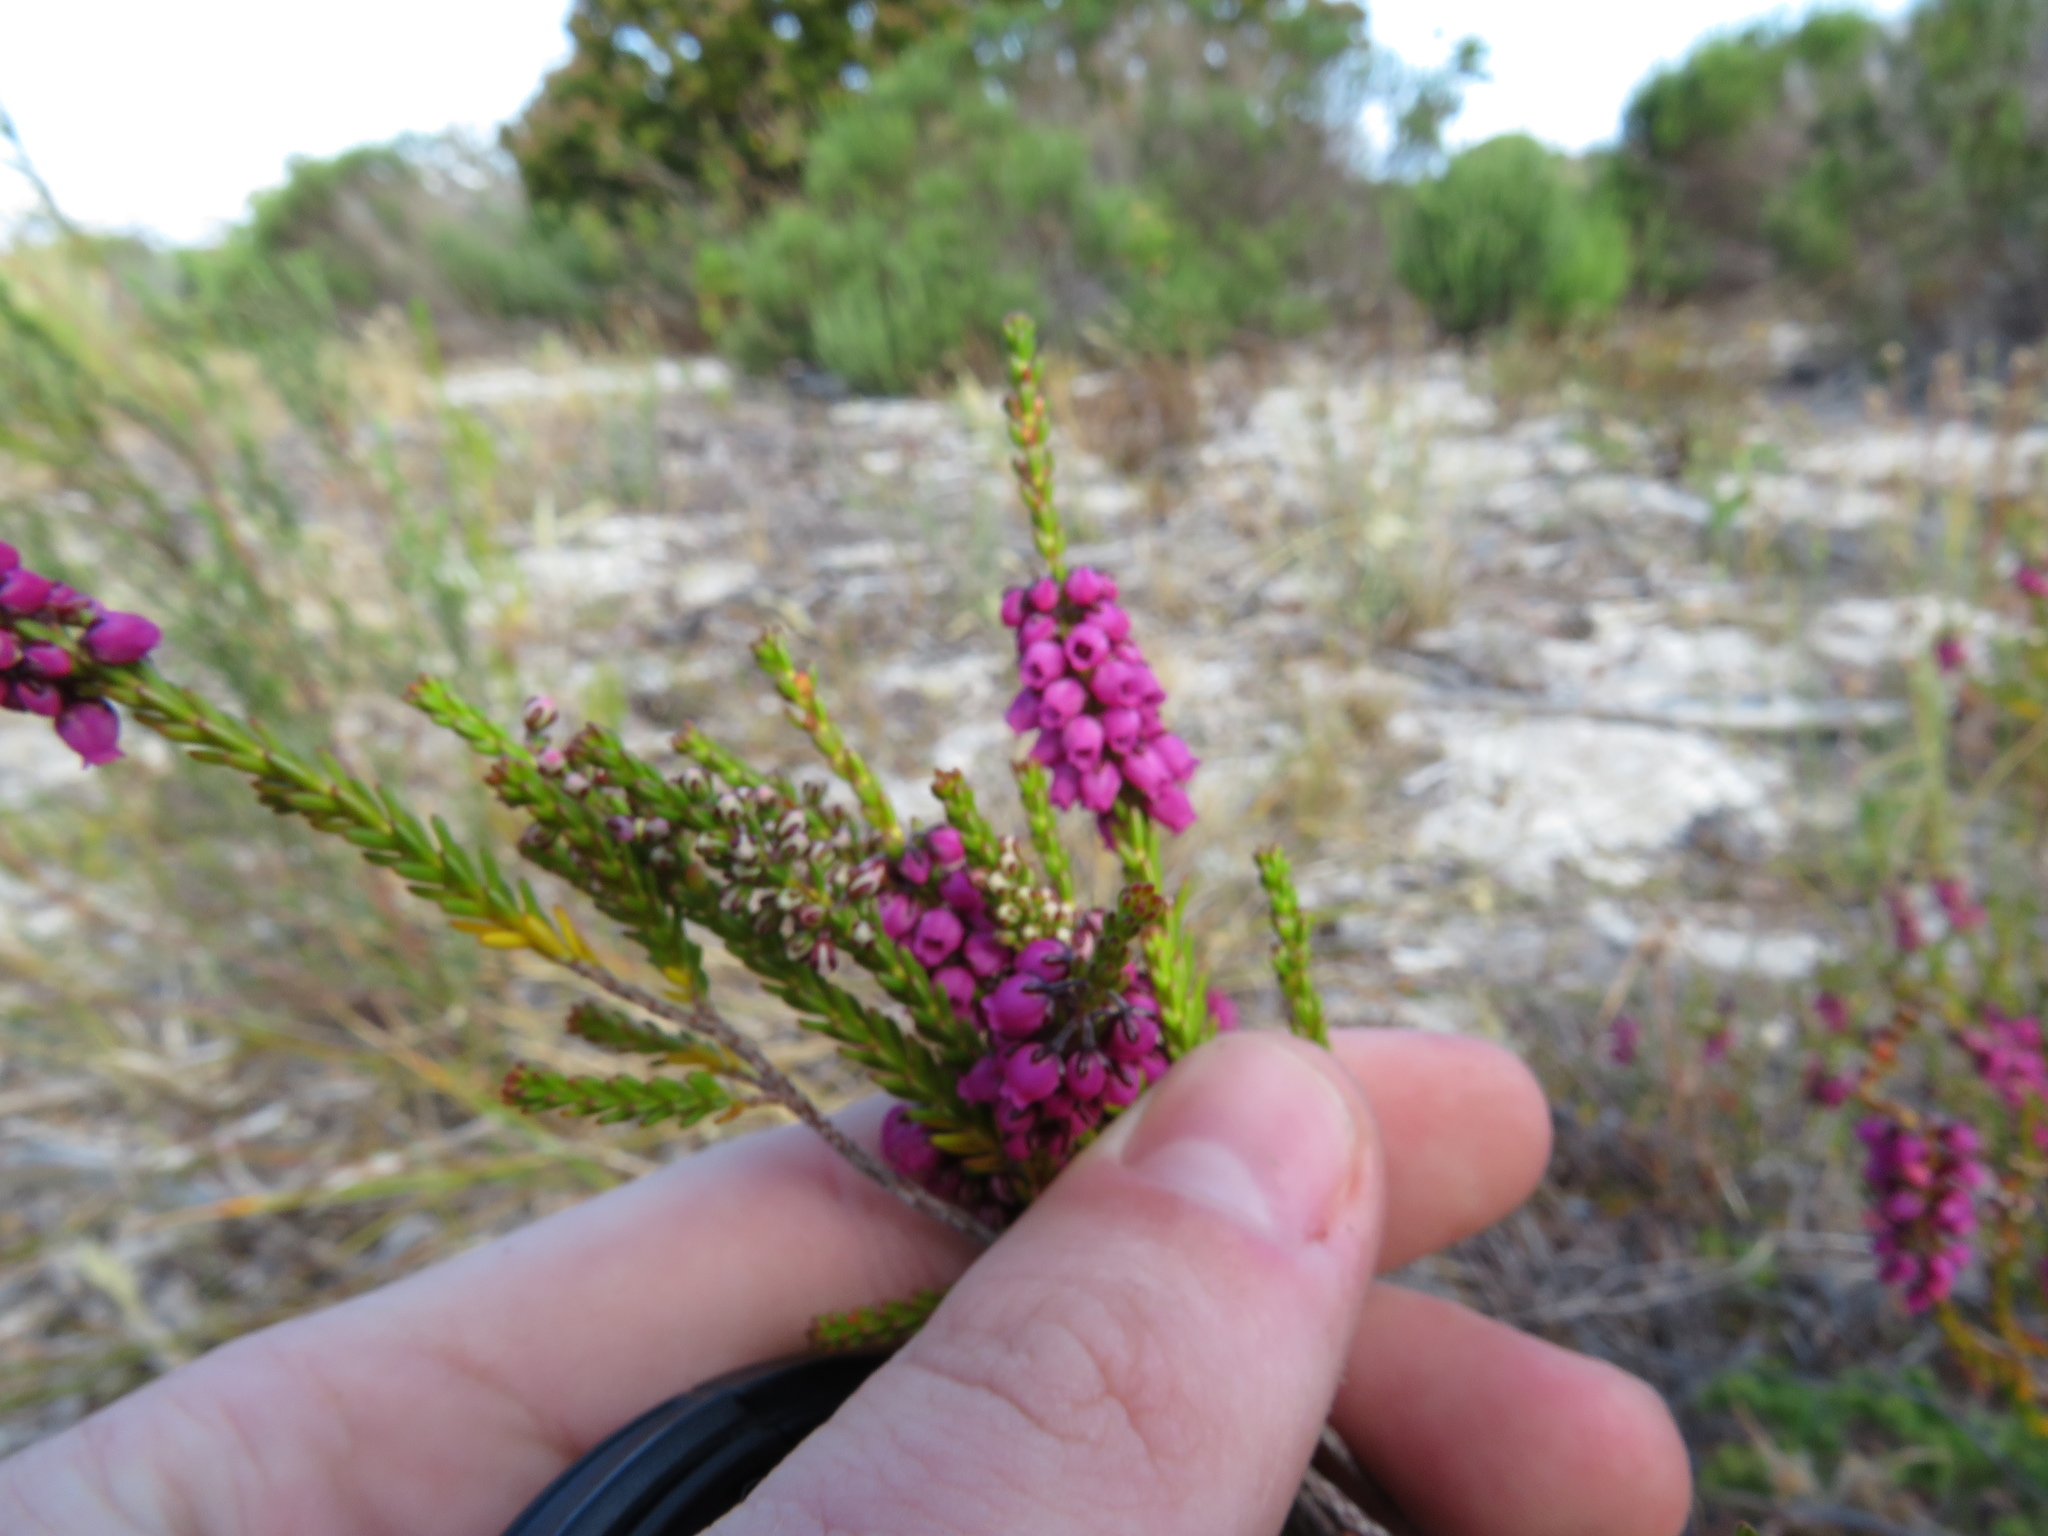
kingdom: Plantae
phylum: Tracheophyta
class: Magnoliopsida
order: Ericales
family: Ericaceae
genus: Erica
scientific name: Erica pulchella
